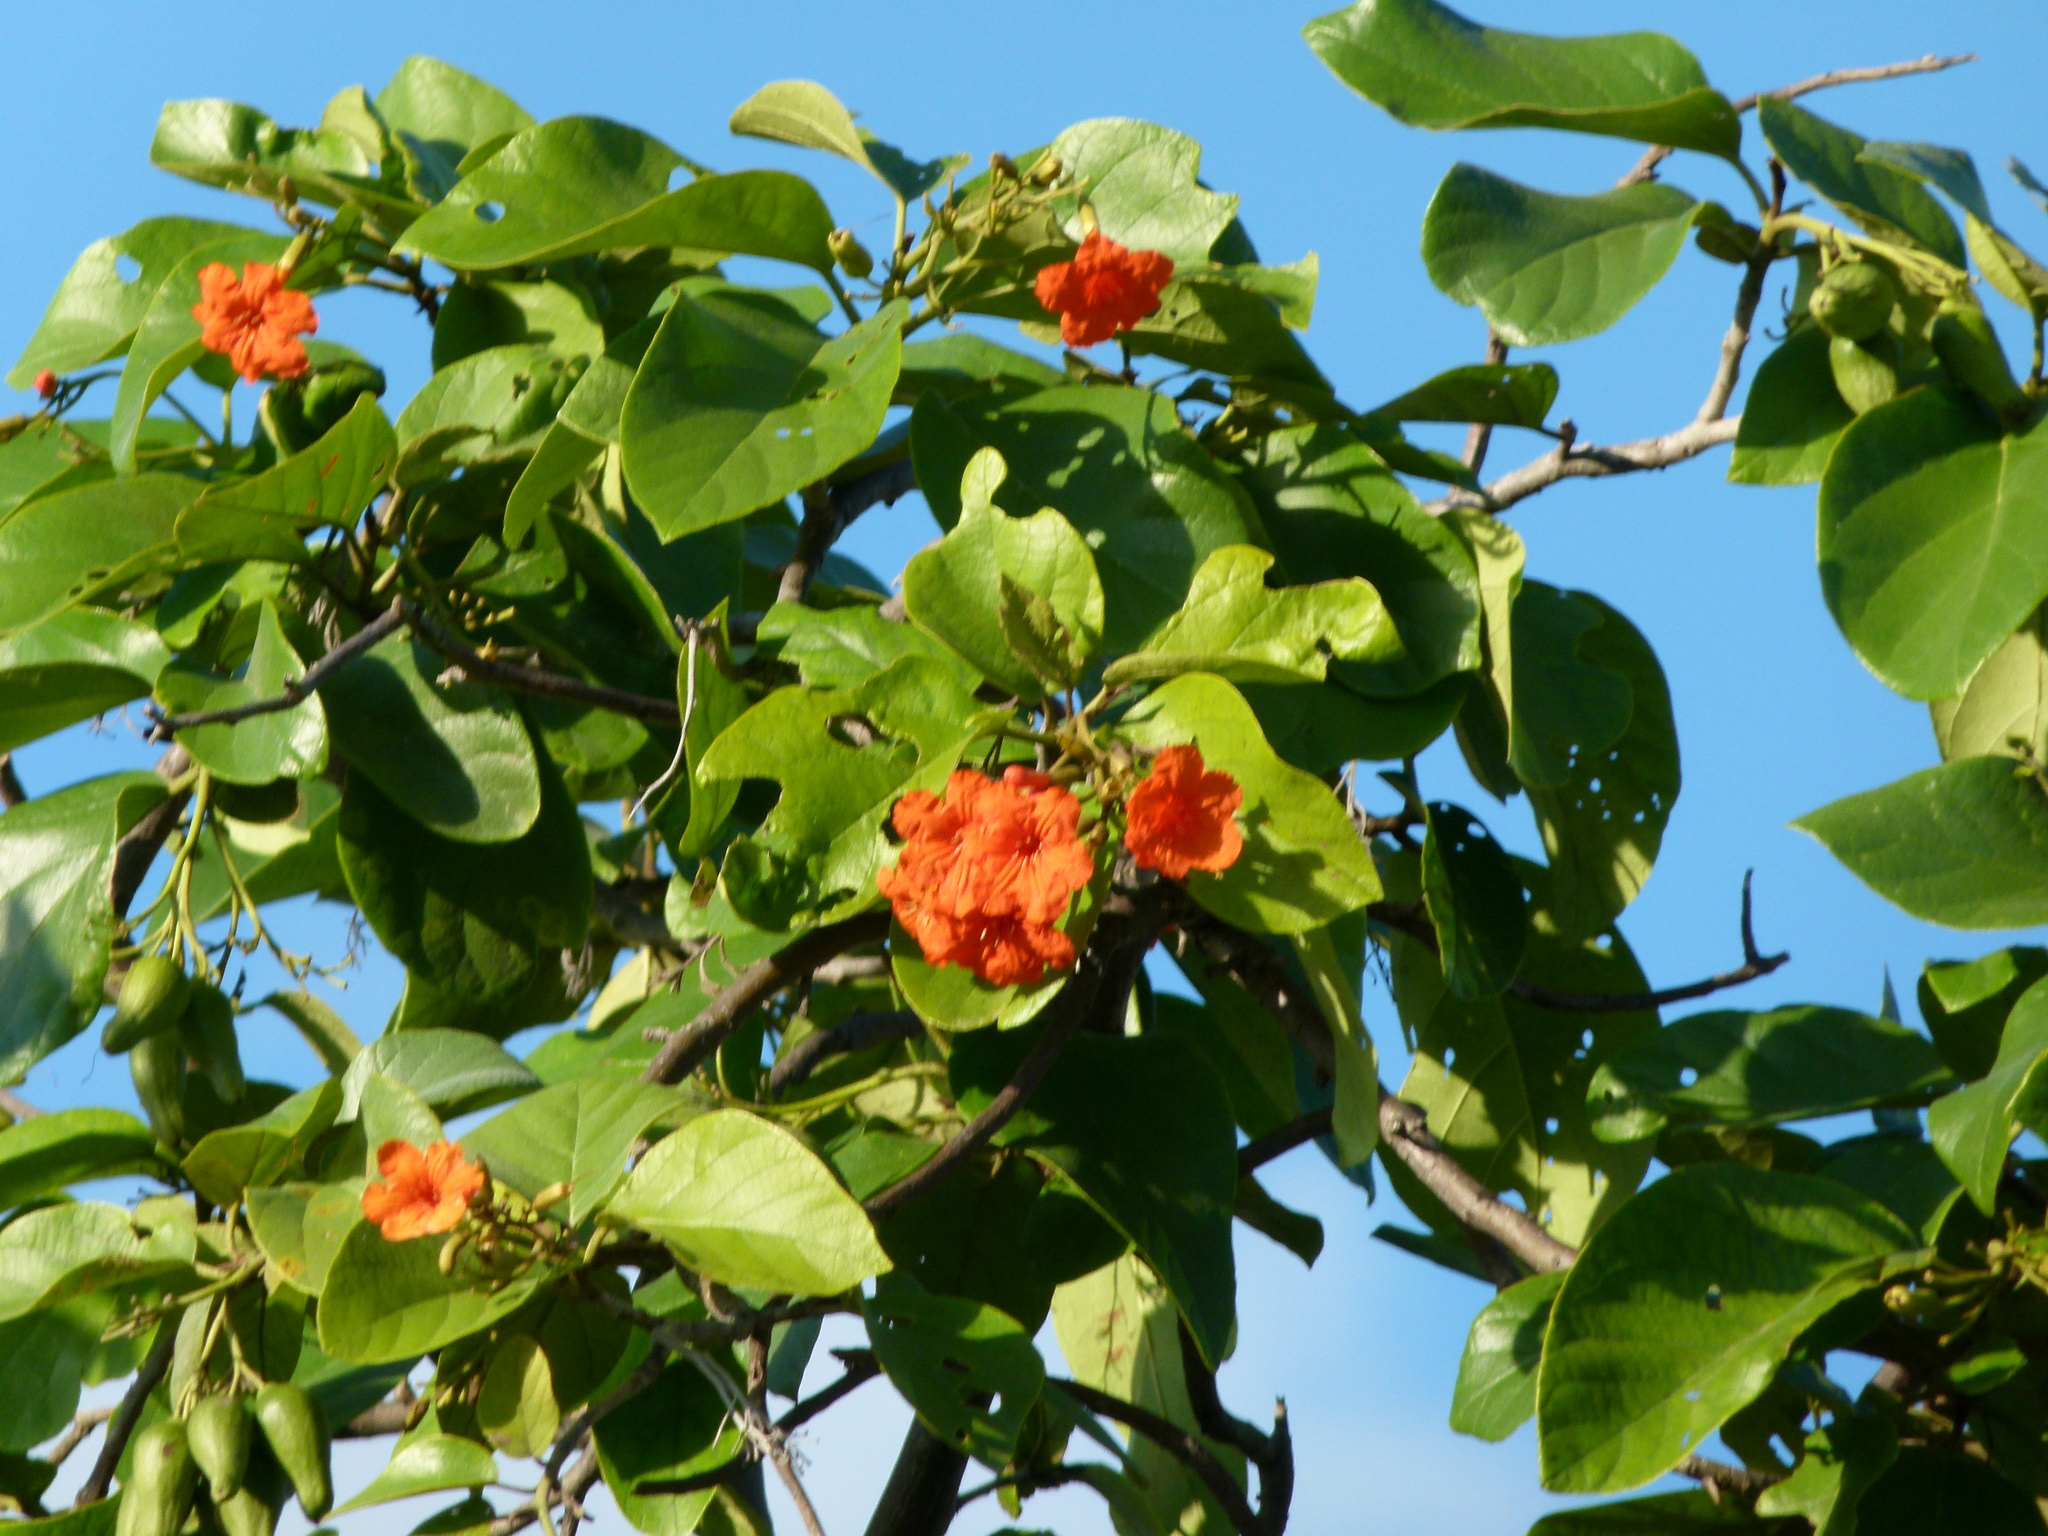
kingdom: Plantae
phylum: Tracheophyta
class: Magnoliopsida
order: Boraginales
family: Cordiaceae
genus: Cordia
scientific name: Cordia sebestena
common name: Largeleaf geigertree
